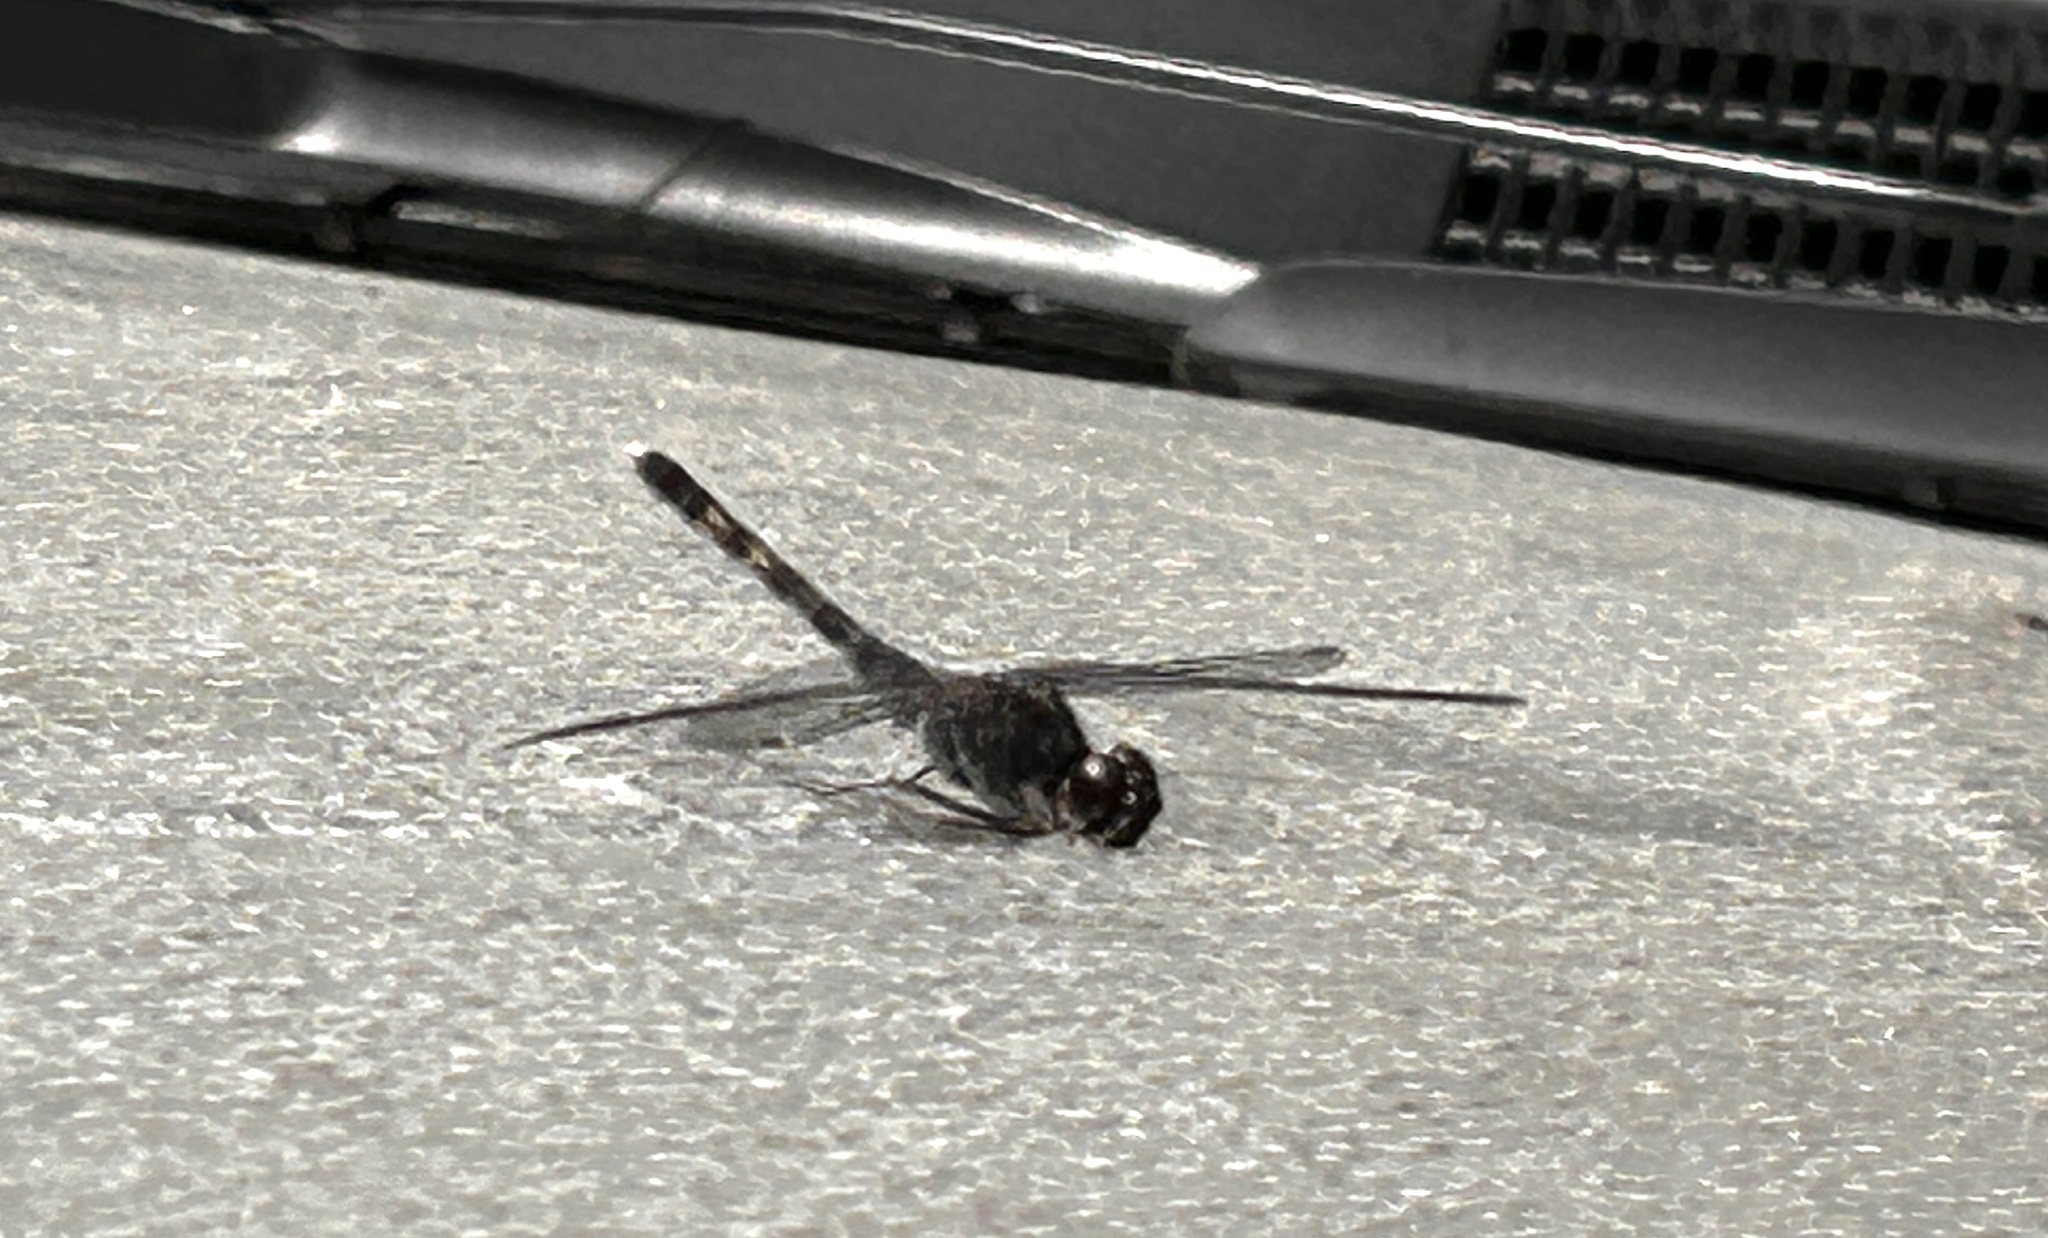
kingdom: Animalia
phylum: Arthropoda
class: Insecta
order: Odonata
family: Libellulidae
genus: Bradinopyga
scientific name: Bradinopyga geminata
